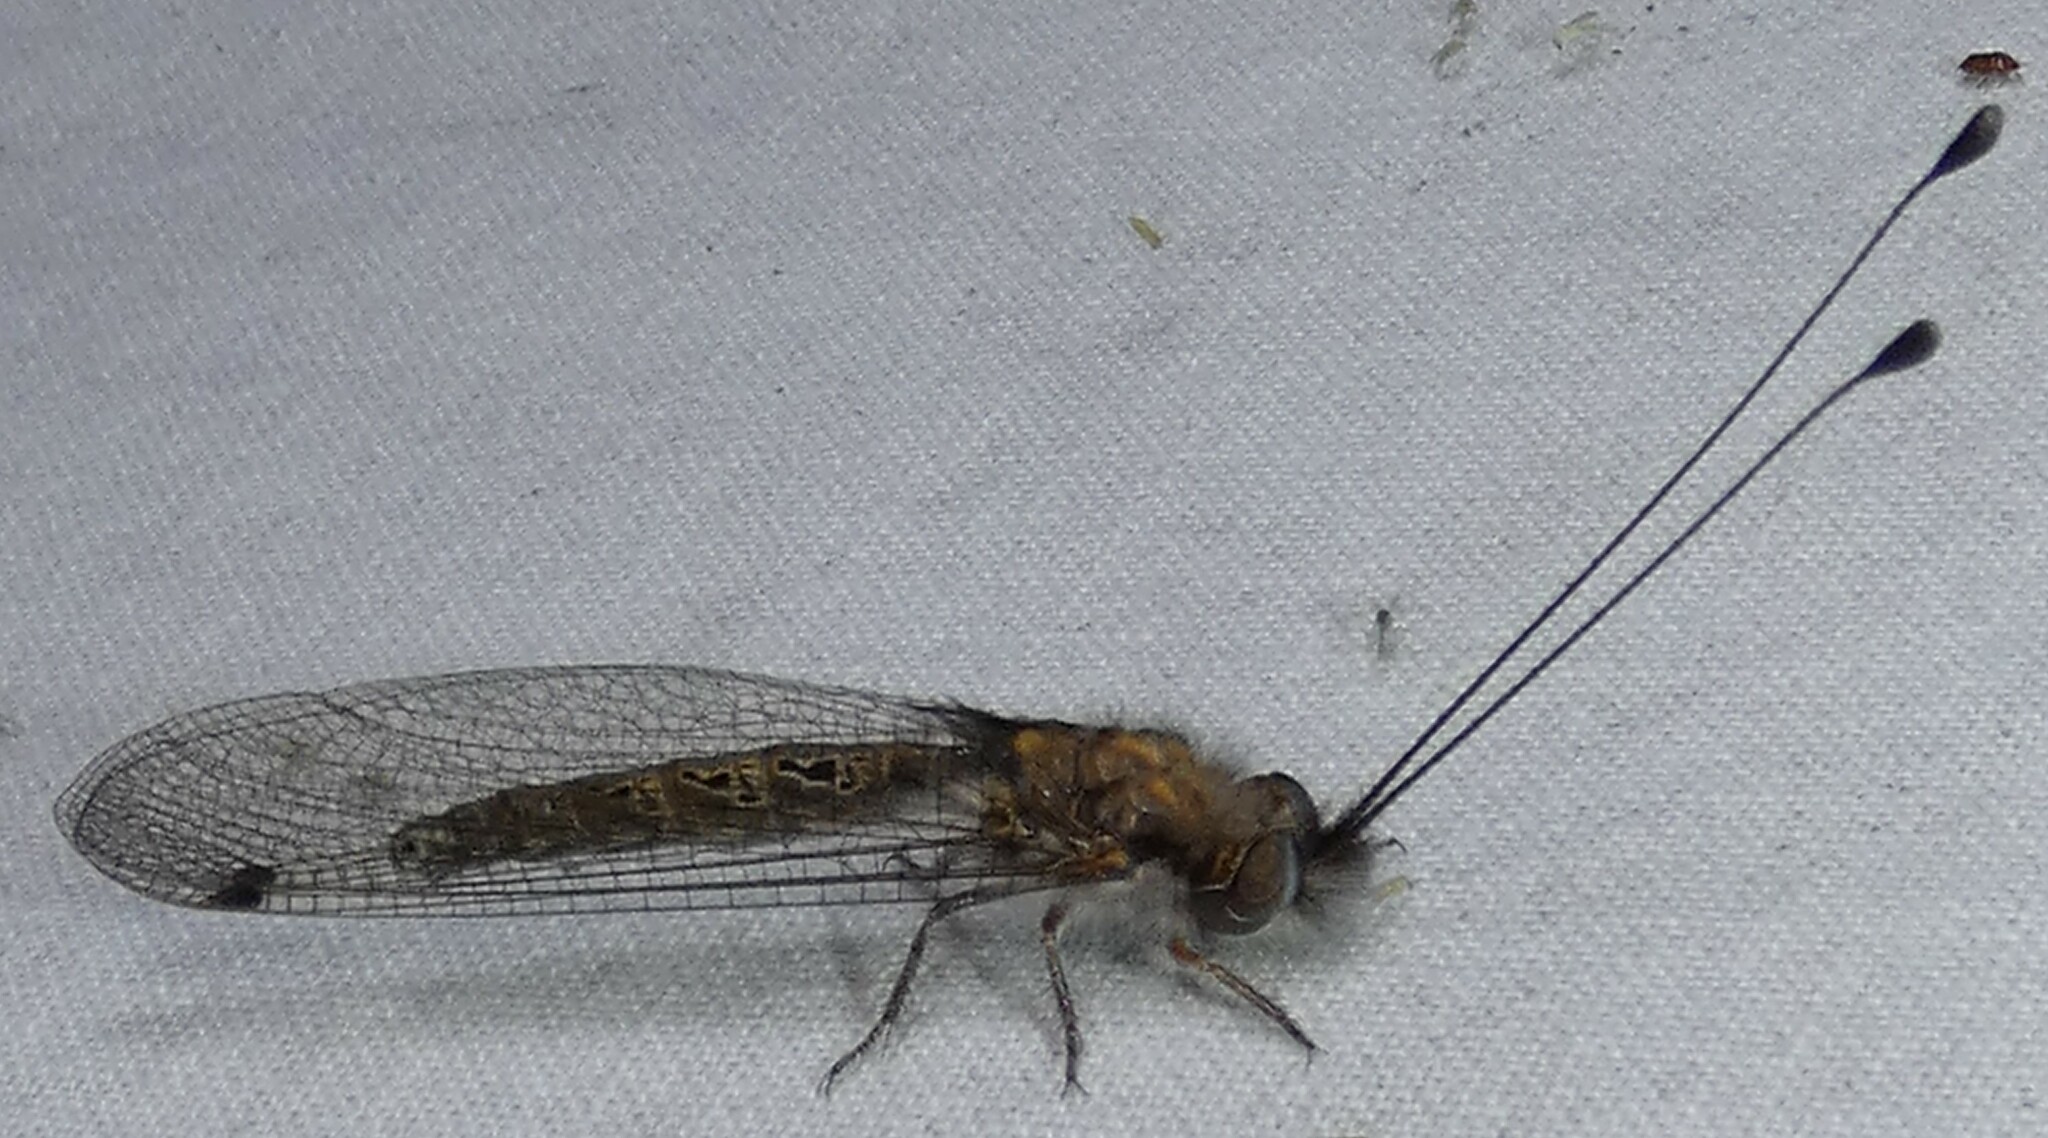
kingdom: Animalia
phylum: Arthropoda
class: Insecta
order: Neuroptera
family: Ascalaphidae
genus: Ululodes
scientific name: Ululodes macleayanus
